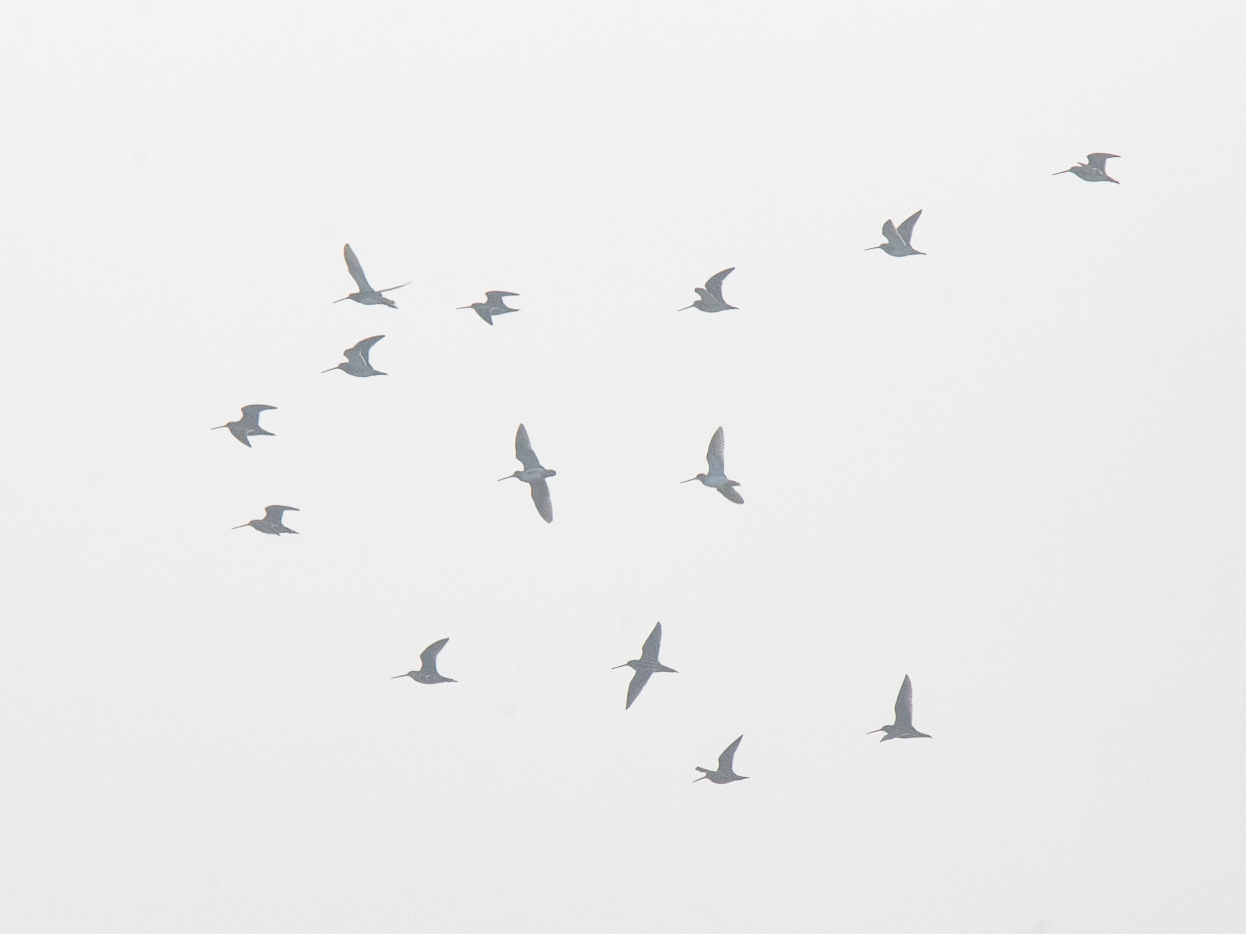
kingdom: Animalia
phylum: Chordata
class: Aves
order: Charadriiformes
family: Scolopacidae
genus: Gallinago
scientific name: Gallinago gallinago
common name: Common snipe
